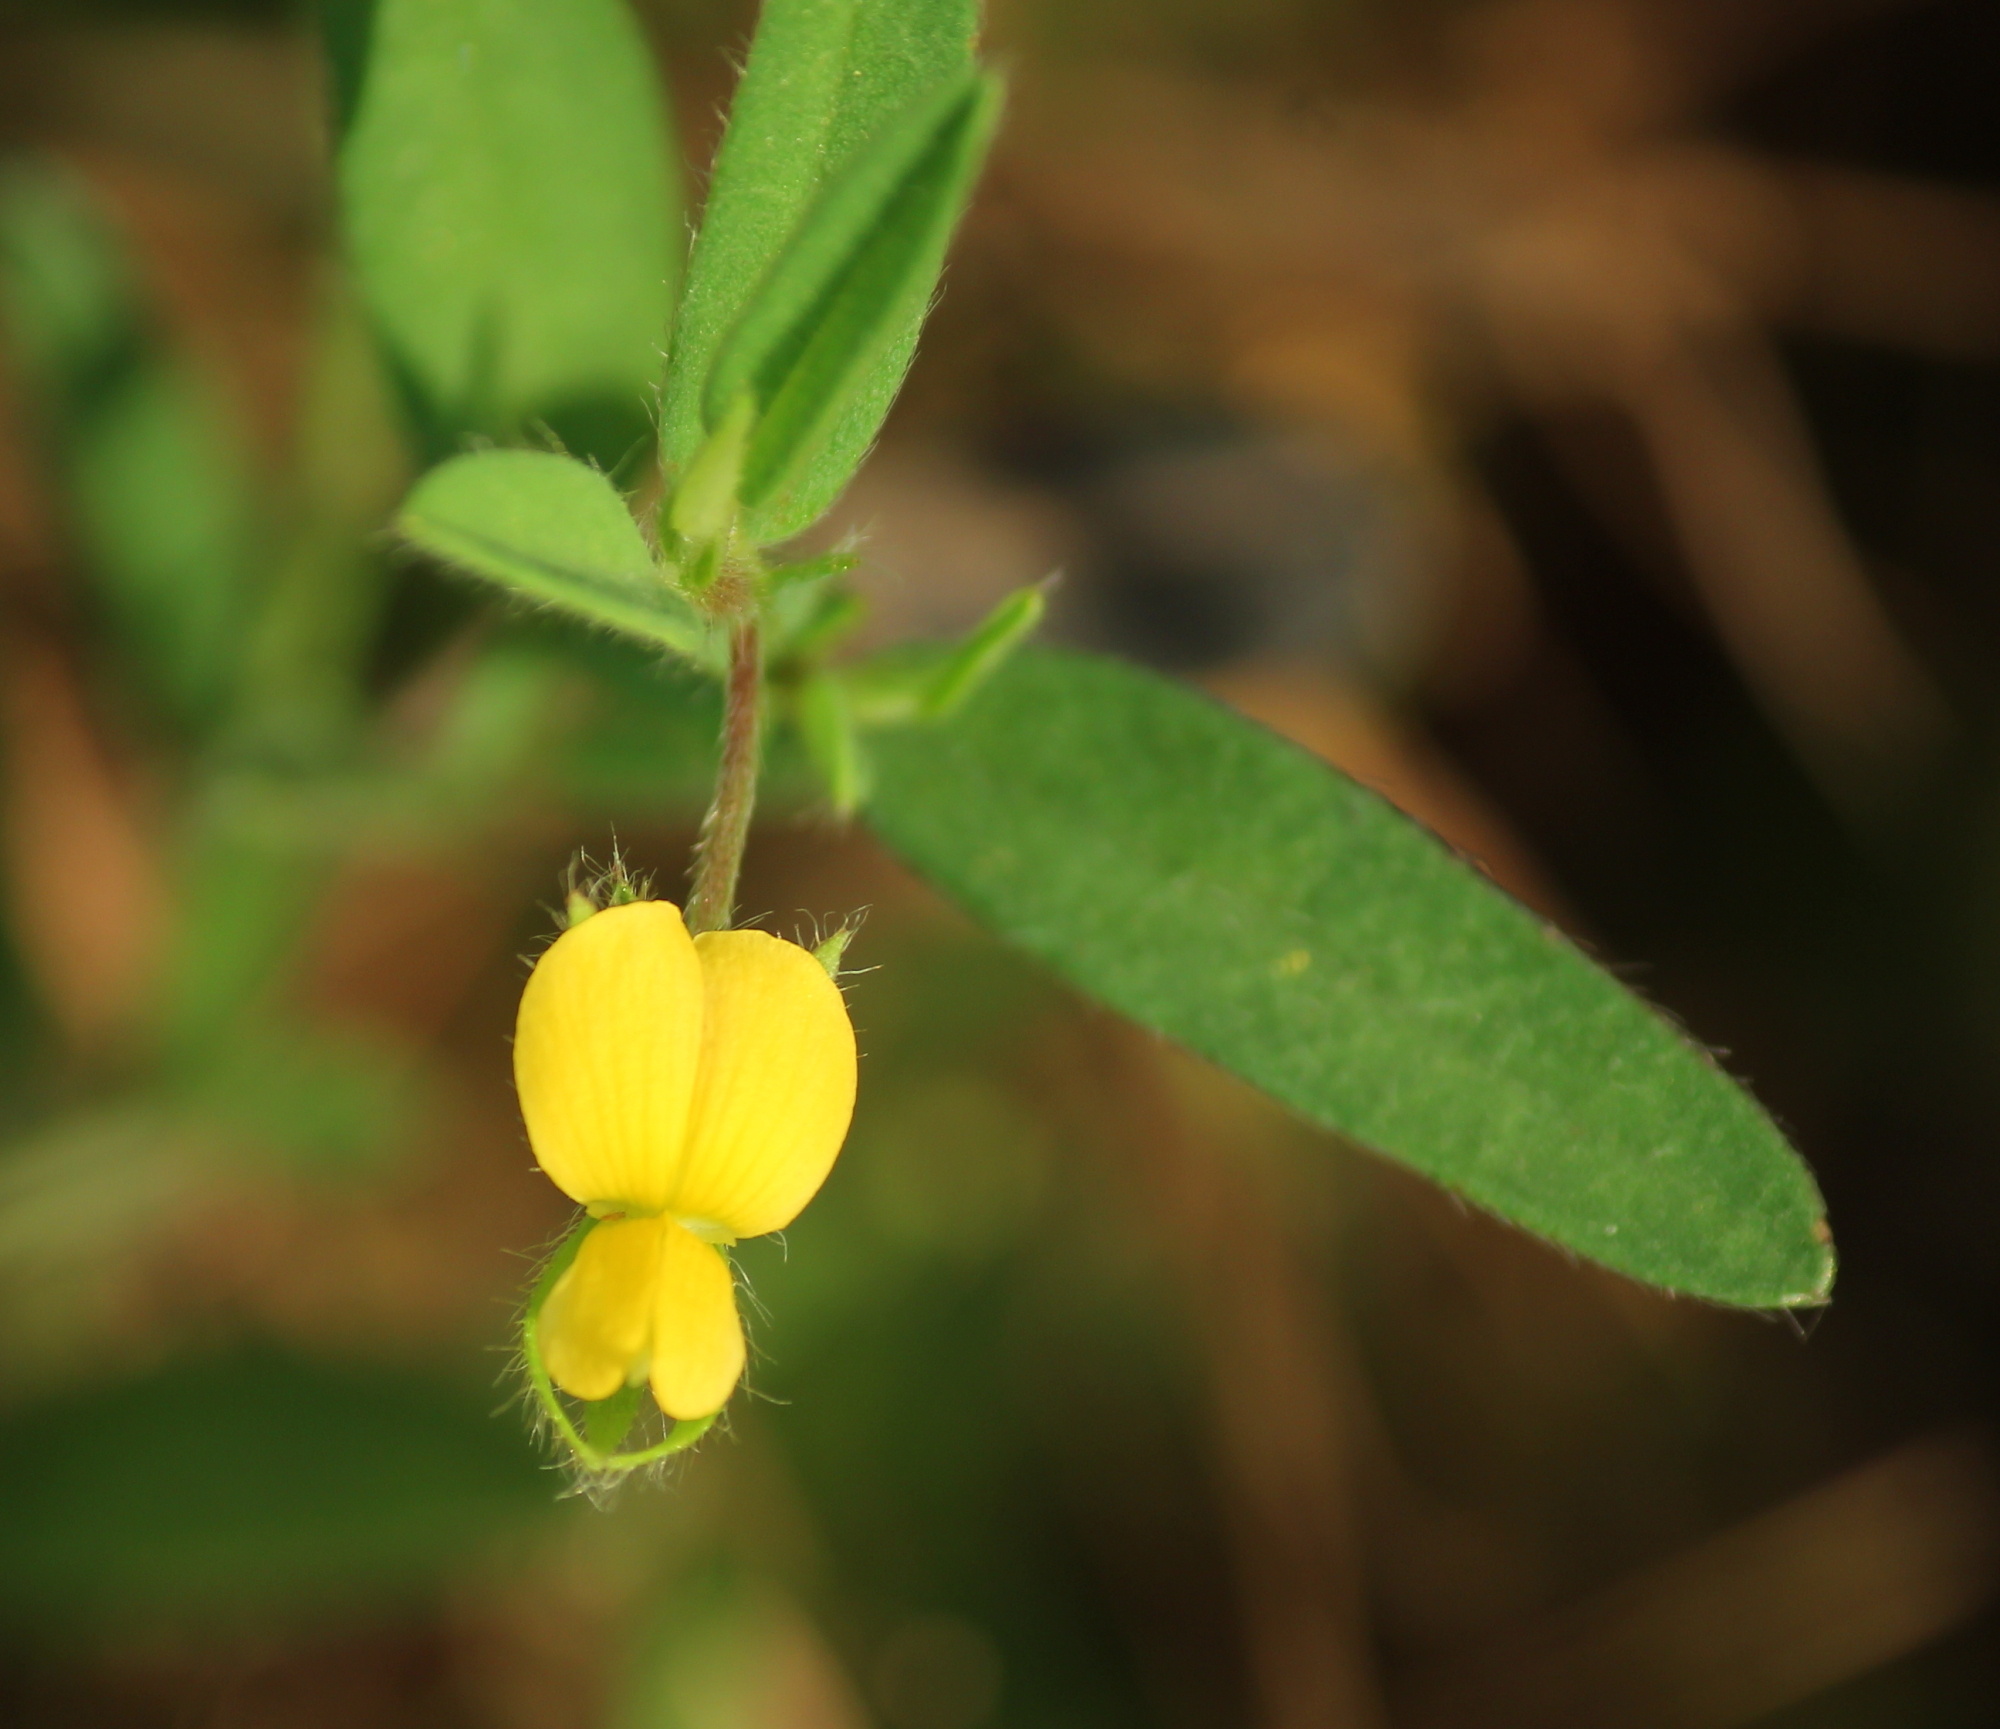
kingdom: Plantae
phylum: Tracheophyta
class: Magnoliopsida
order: Fabales
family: Fabaceae
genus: Crotalaria
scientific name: Crotalaria sagittalis
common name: Arrowhead rattlebox
